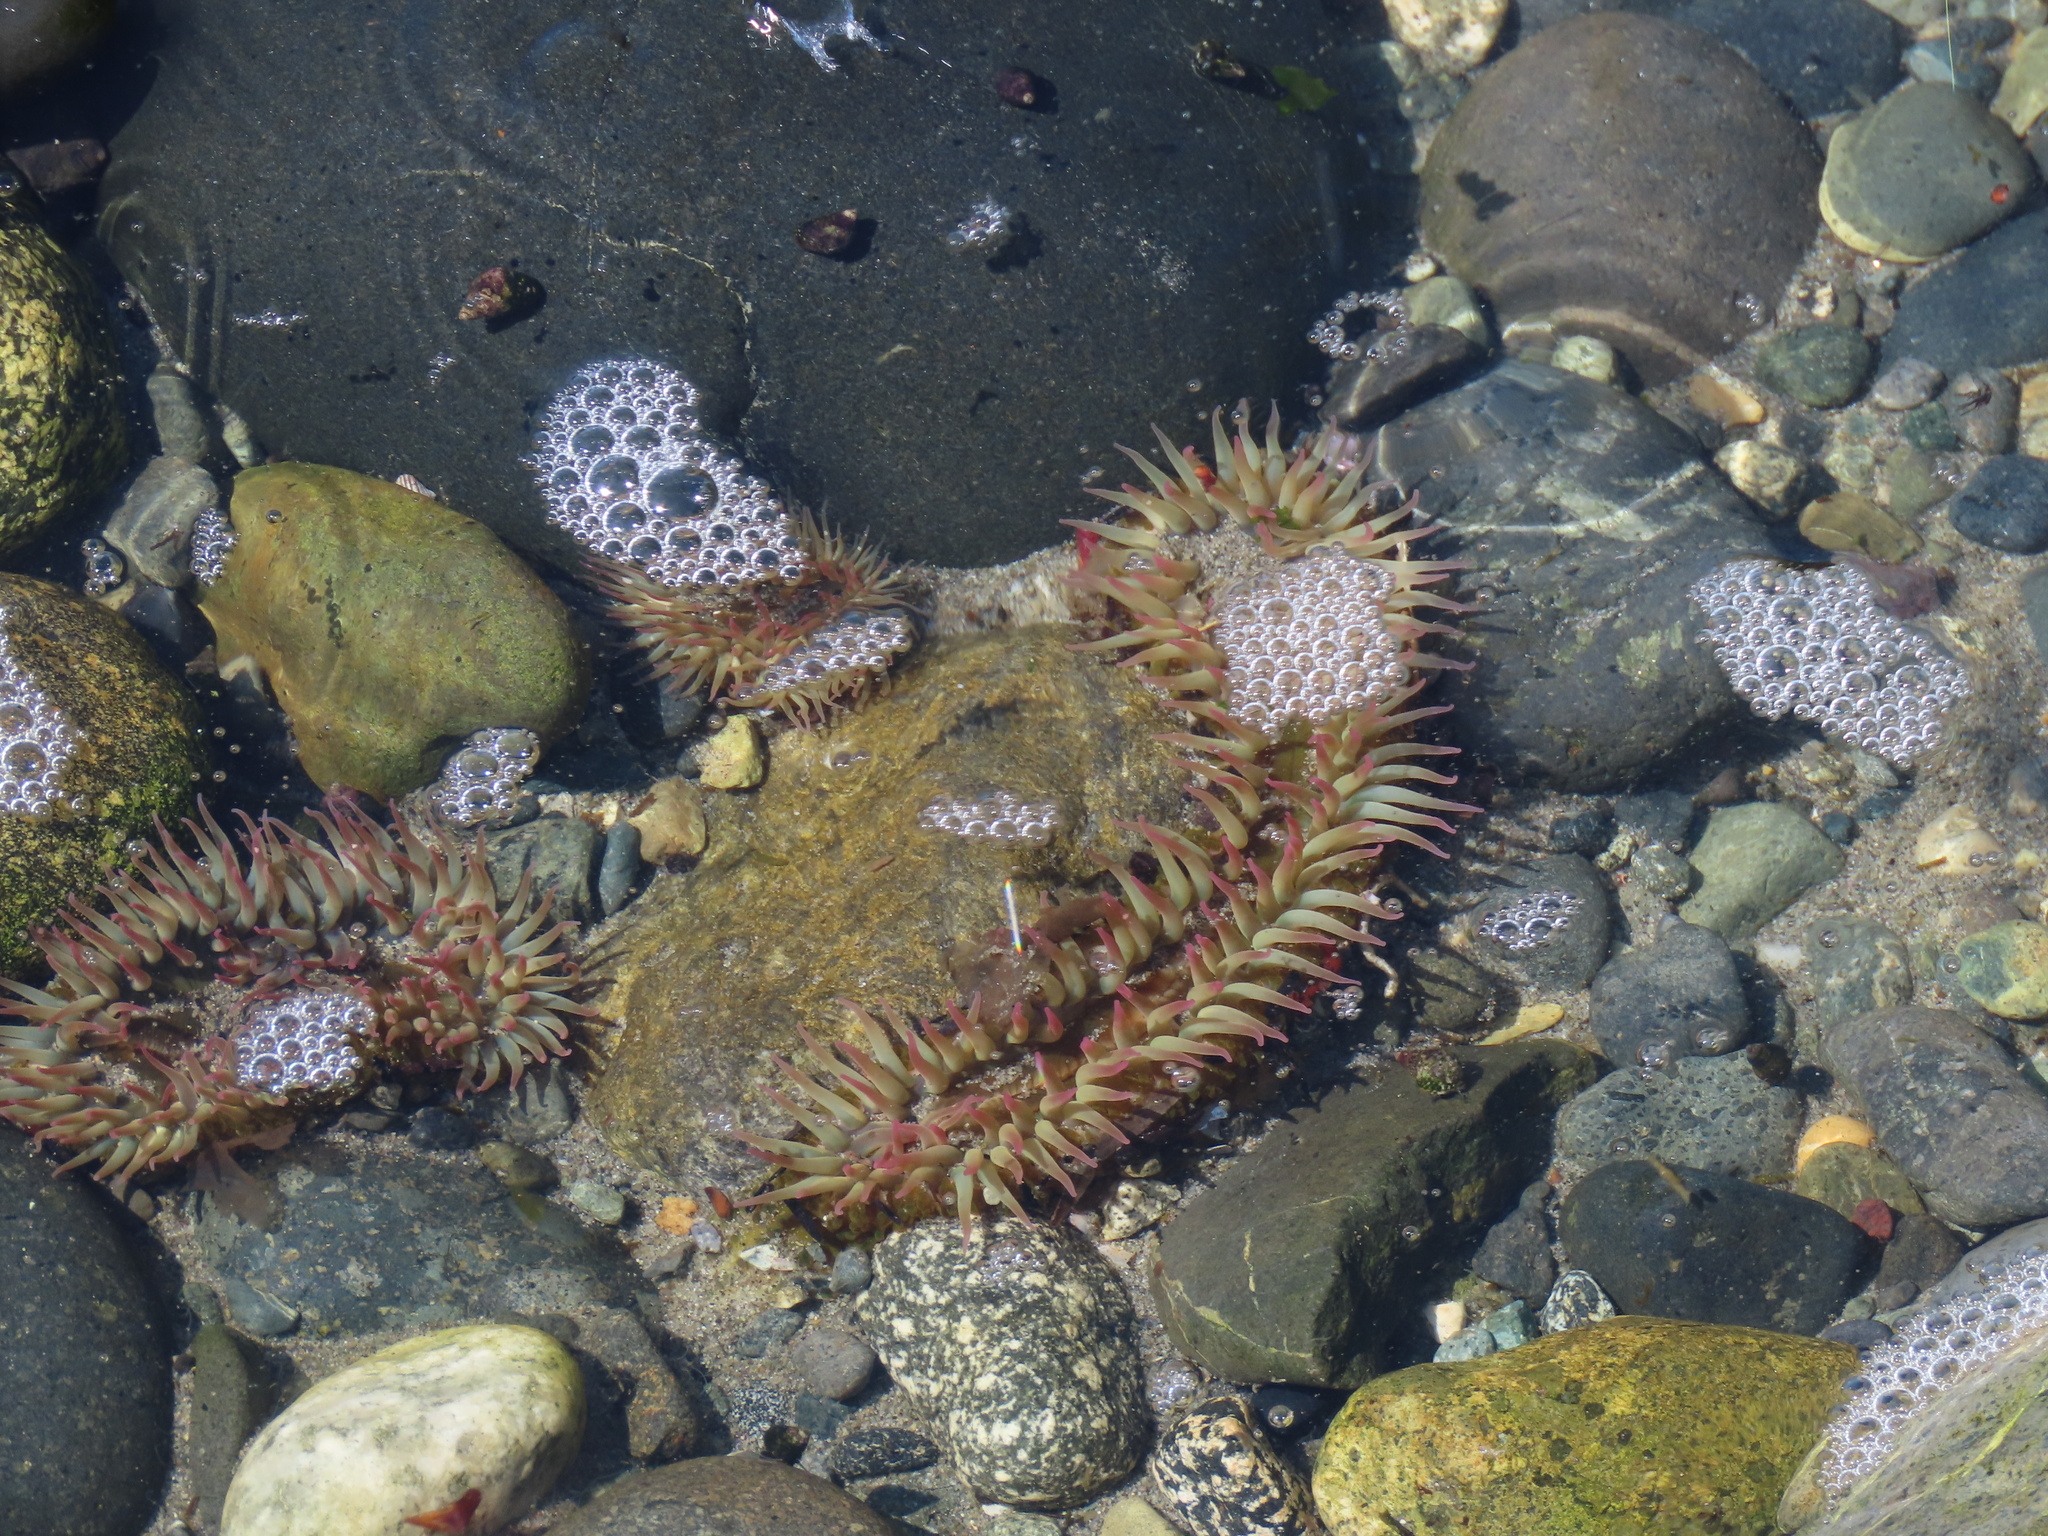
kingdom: Animalia
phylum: Cnidaria
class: Anthozoa
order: Actiniaria
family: Actiniidae
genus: Anthopleura
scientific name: Anthopleura elegantissima
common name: Clonal anemone
